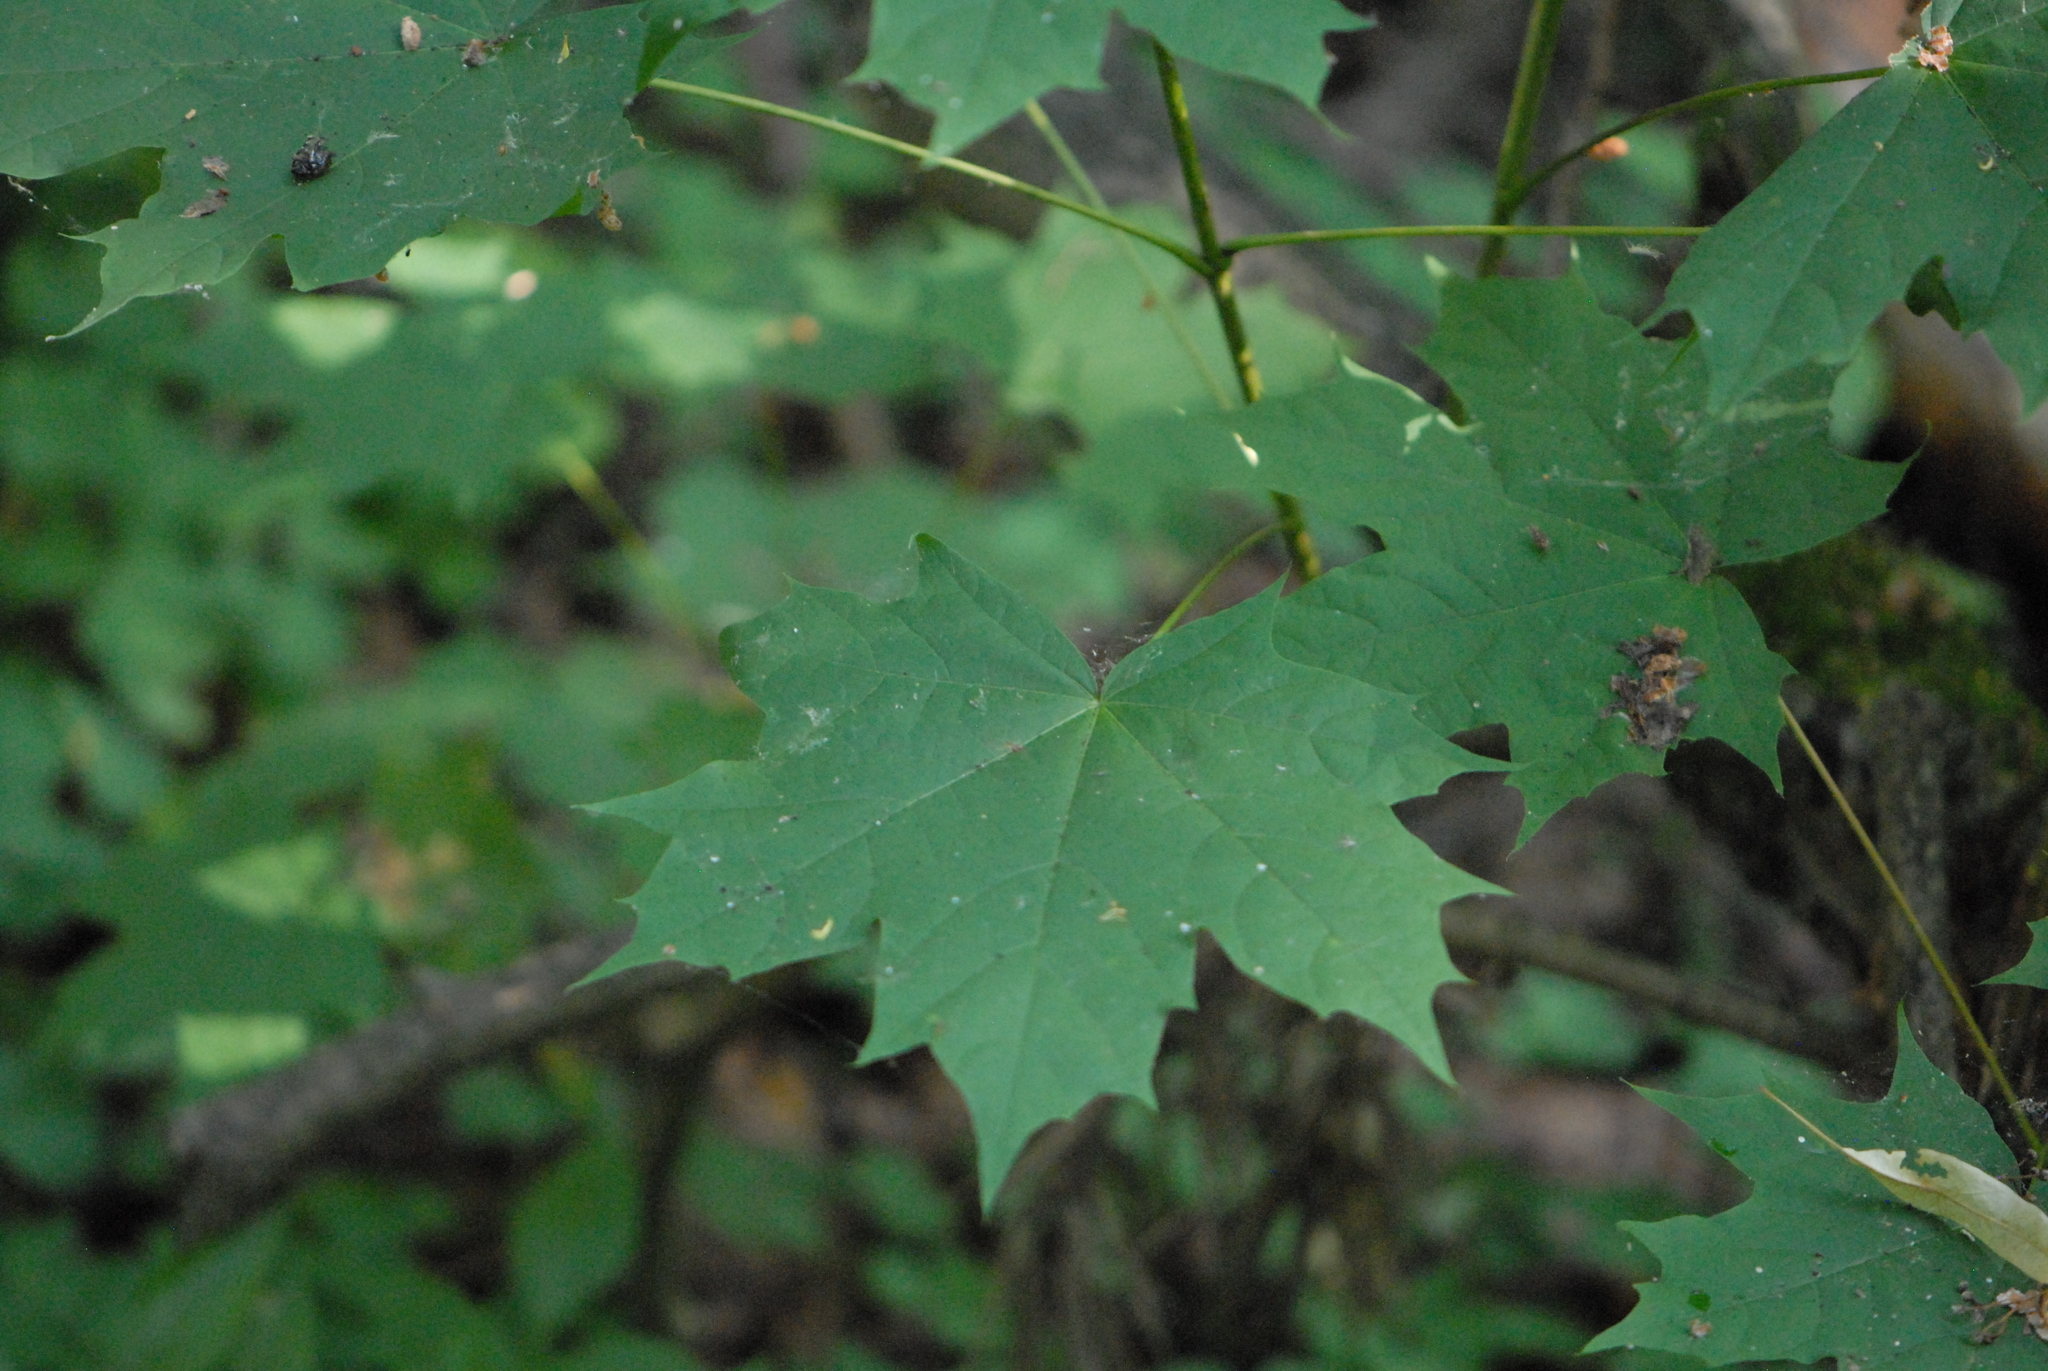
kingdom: Plantae
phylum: Tracheophyta
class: Magnoliopsida
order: Sapindales
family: Sapindaceae
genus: Acer
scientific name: Acer platanoides
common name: Norway maple
